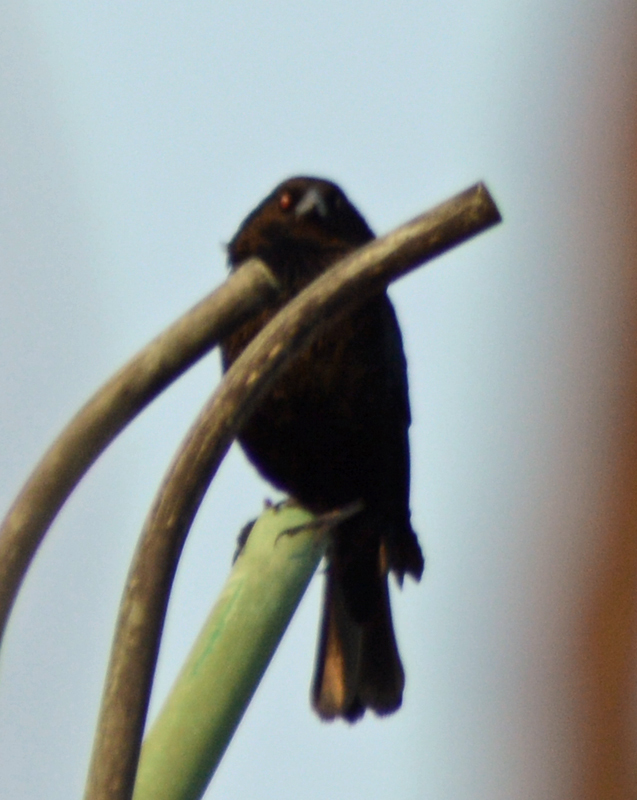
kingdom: Animalia
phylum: Chordata
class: Aves
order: Passeriformes
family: Icteridae
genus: Molothrus
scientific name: Molothrus aeneus
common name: Bronzed cowbird
